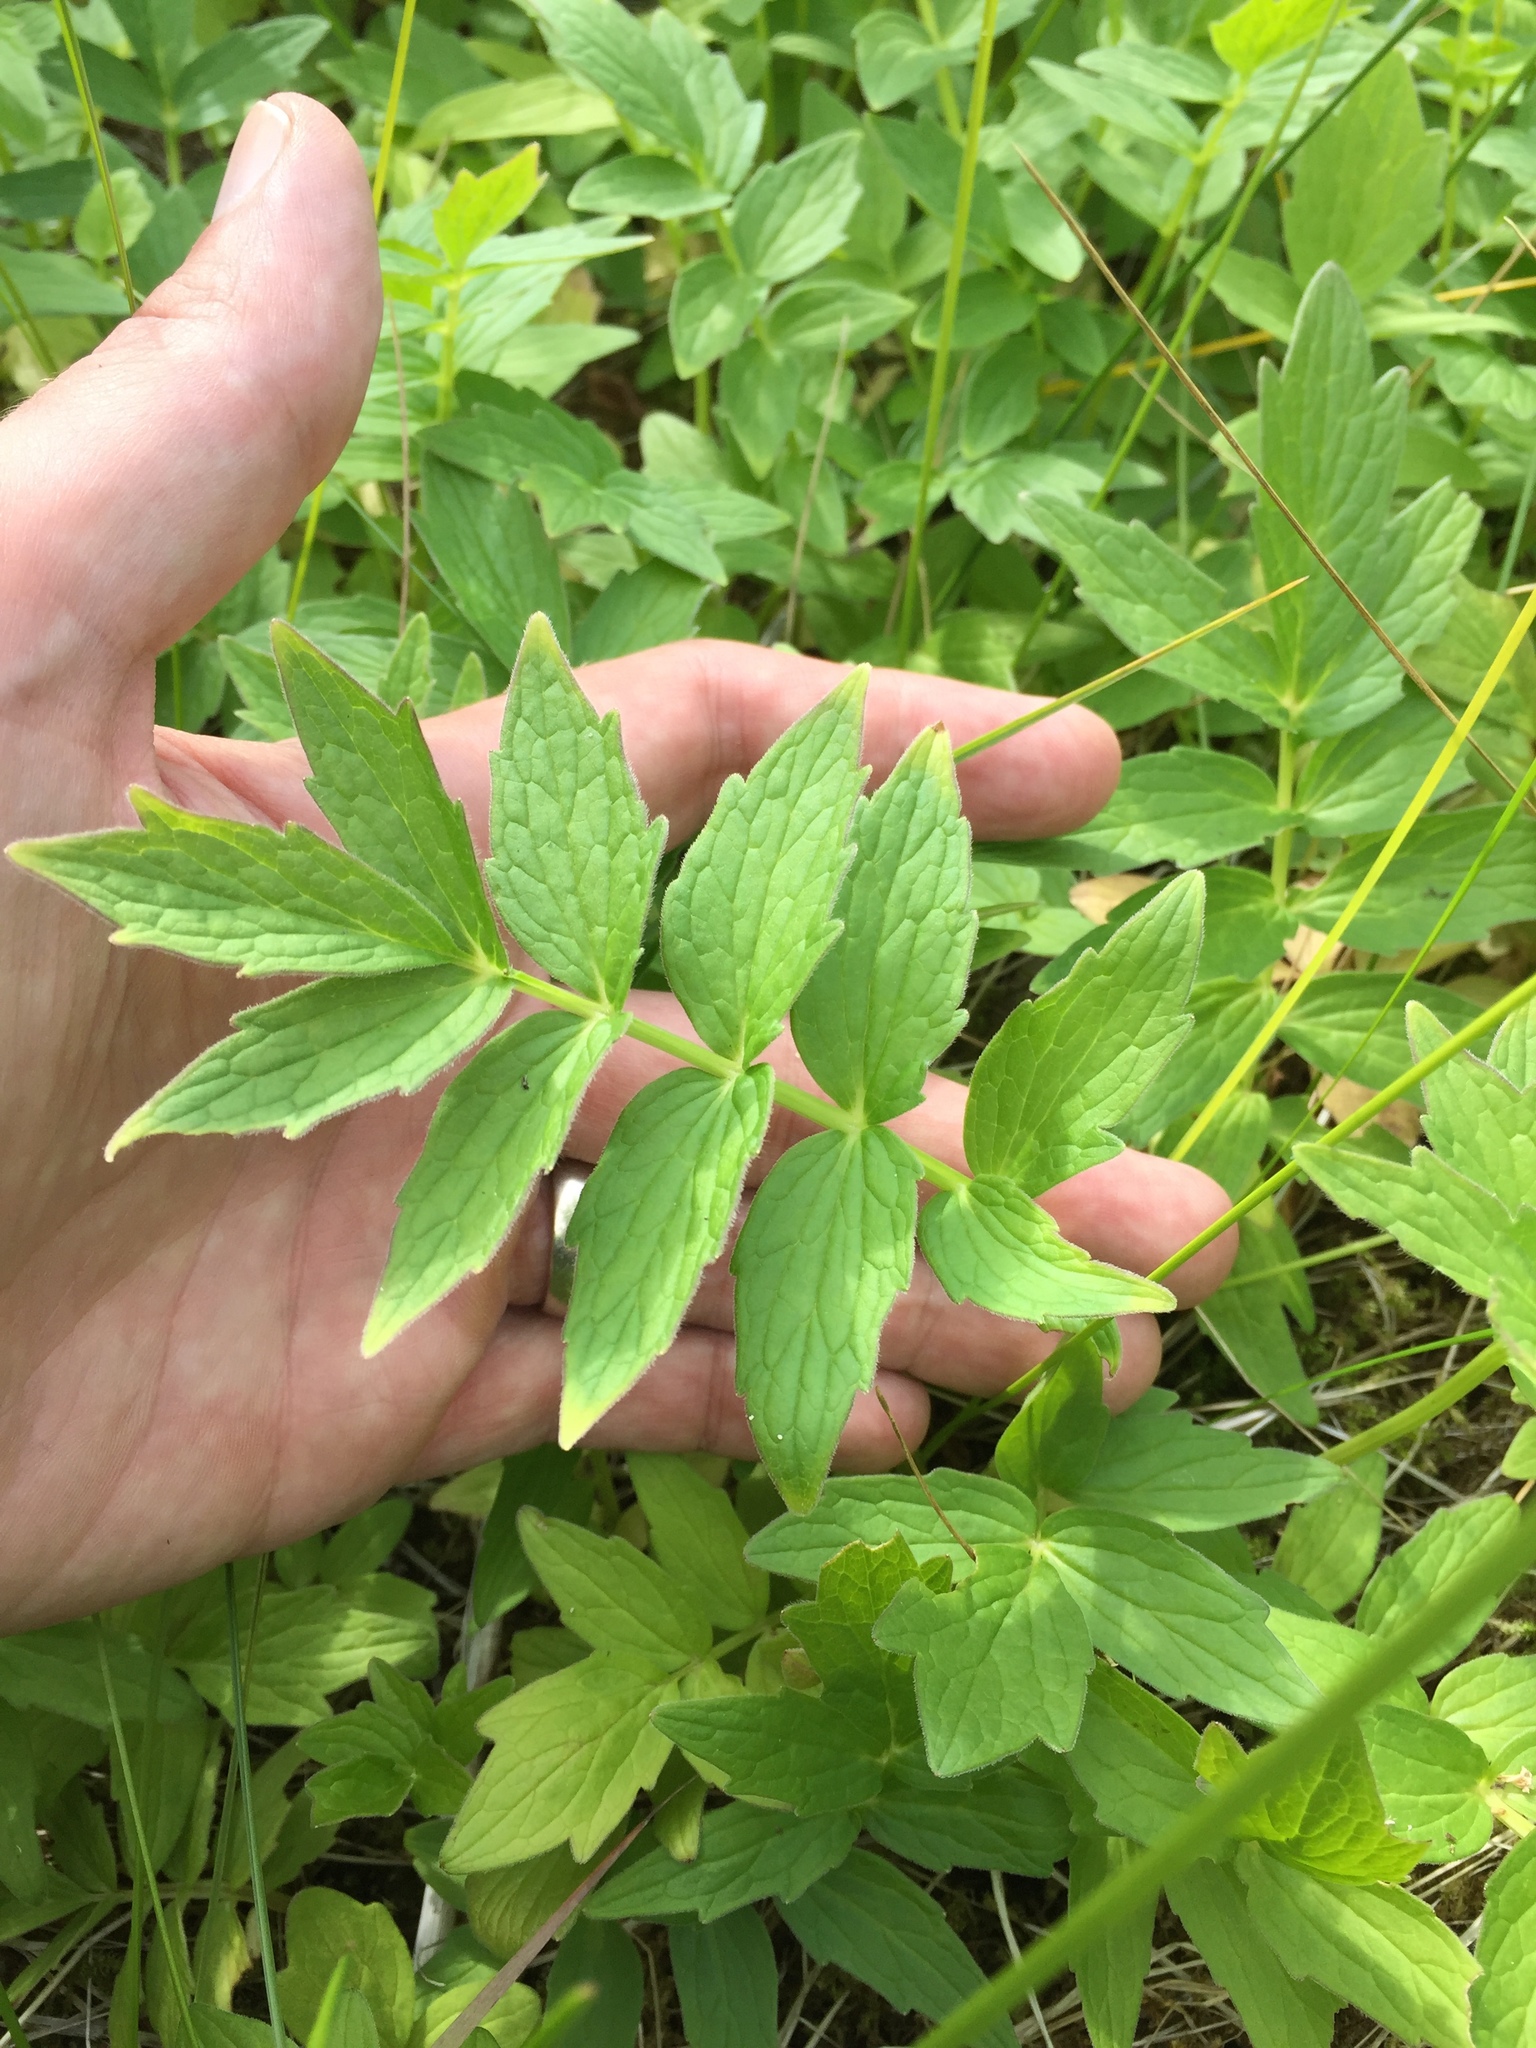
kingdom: Plantae
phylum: Tracheophyta
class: Magnoliopsida
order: Dipsacales
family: Caprifoliaceae
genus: Valeriana
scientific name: Valeriana officinalis
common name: Common valerian
